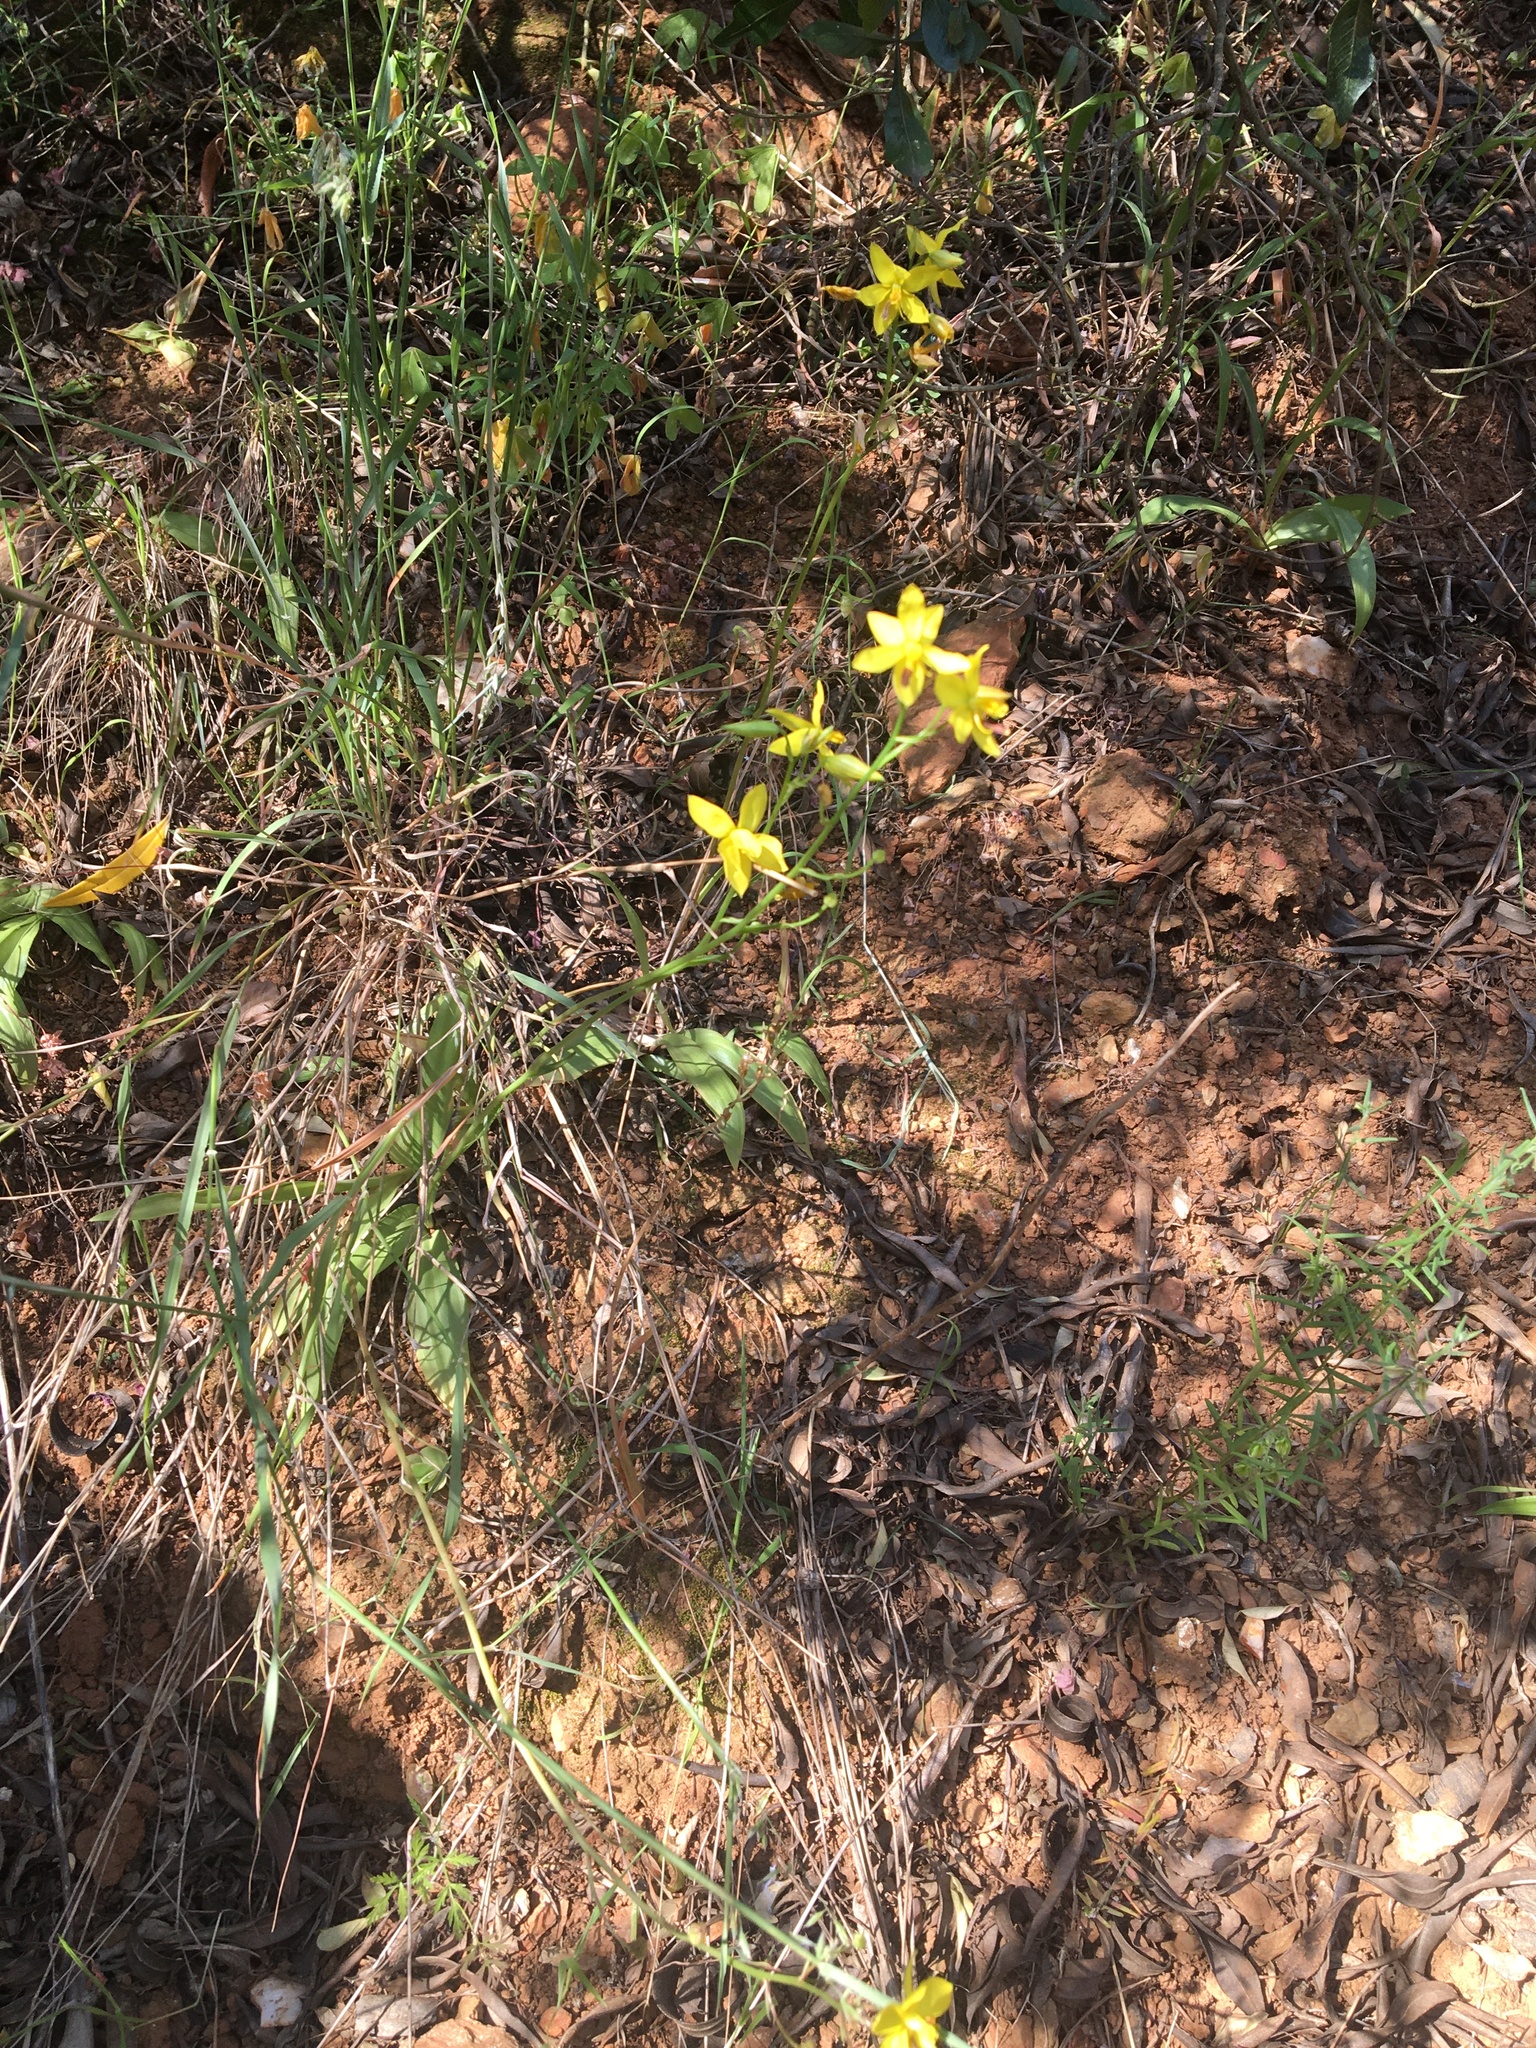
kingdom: Plantae
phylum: Tracheophyta
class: Liliopsida
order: Asparagales
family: Tecophilaeaceae
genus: Cyanella
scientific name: Cyanella lutea
